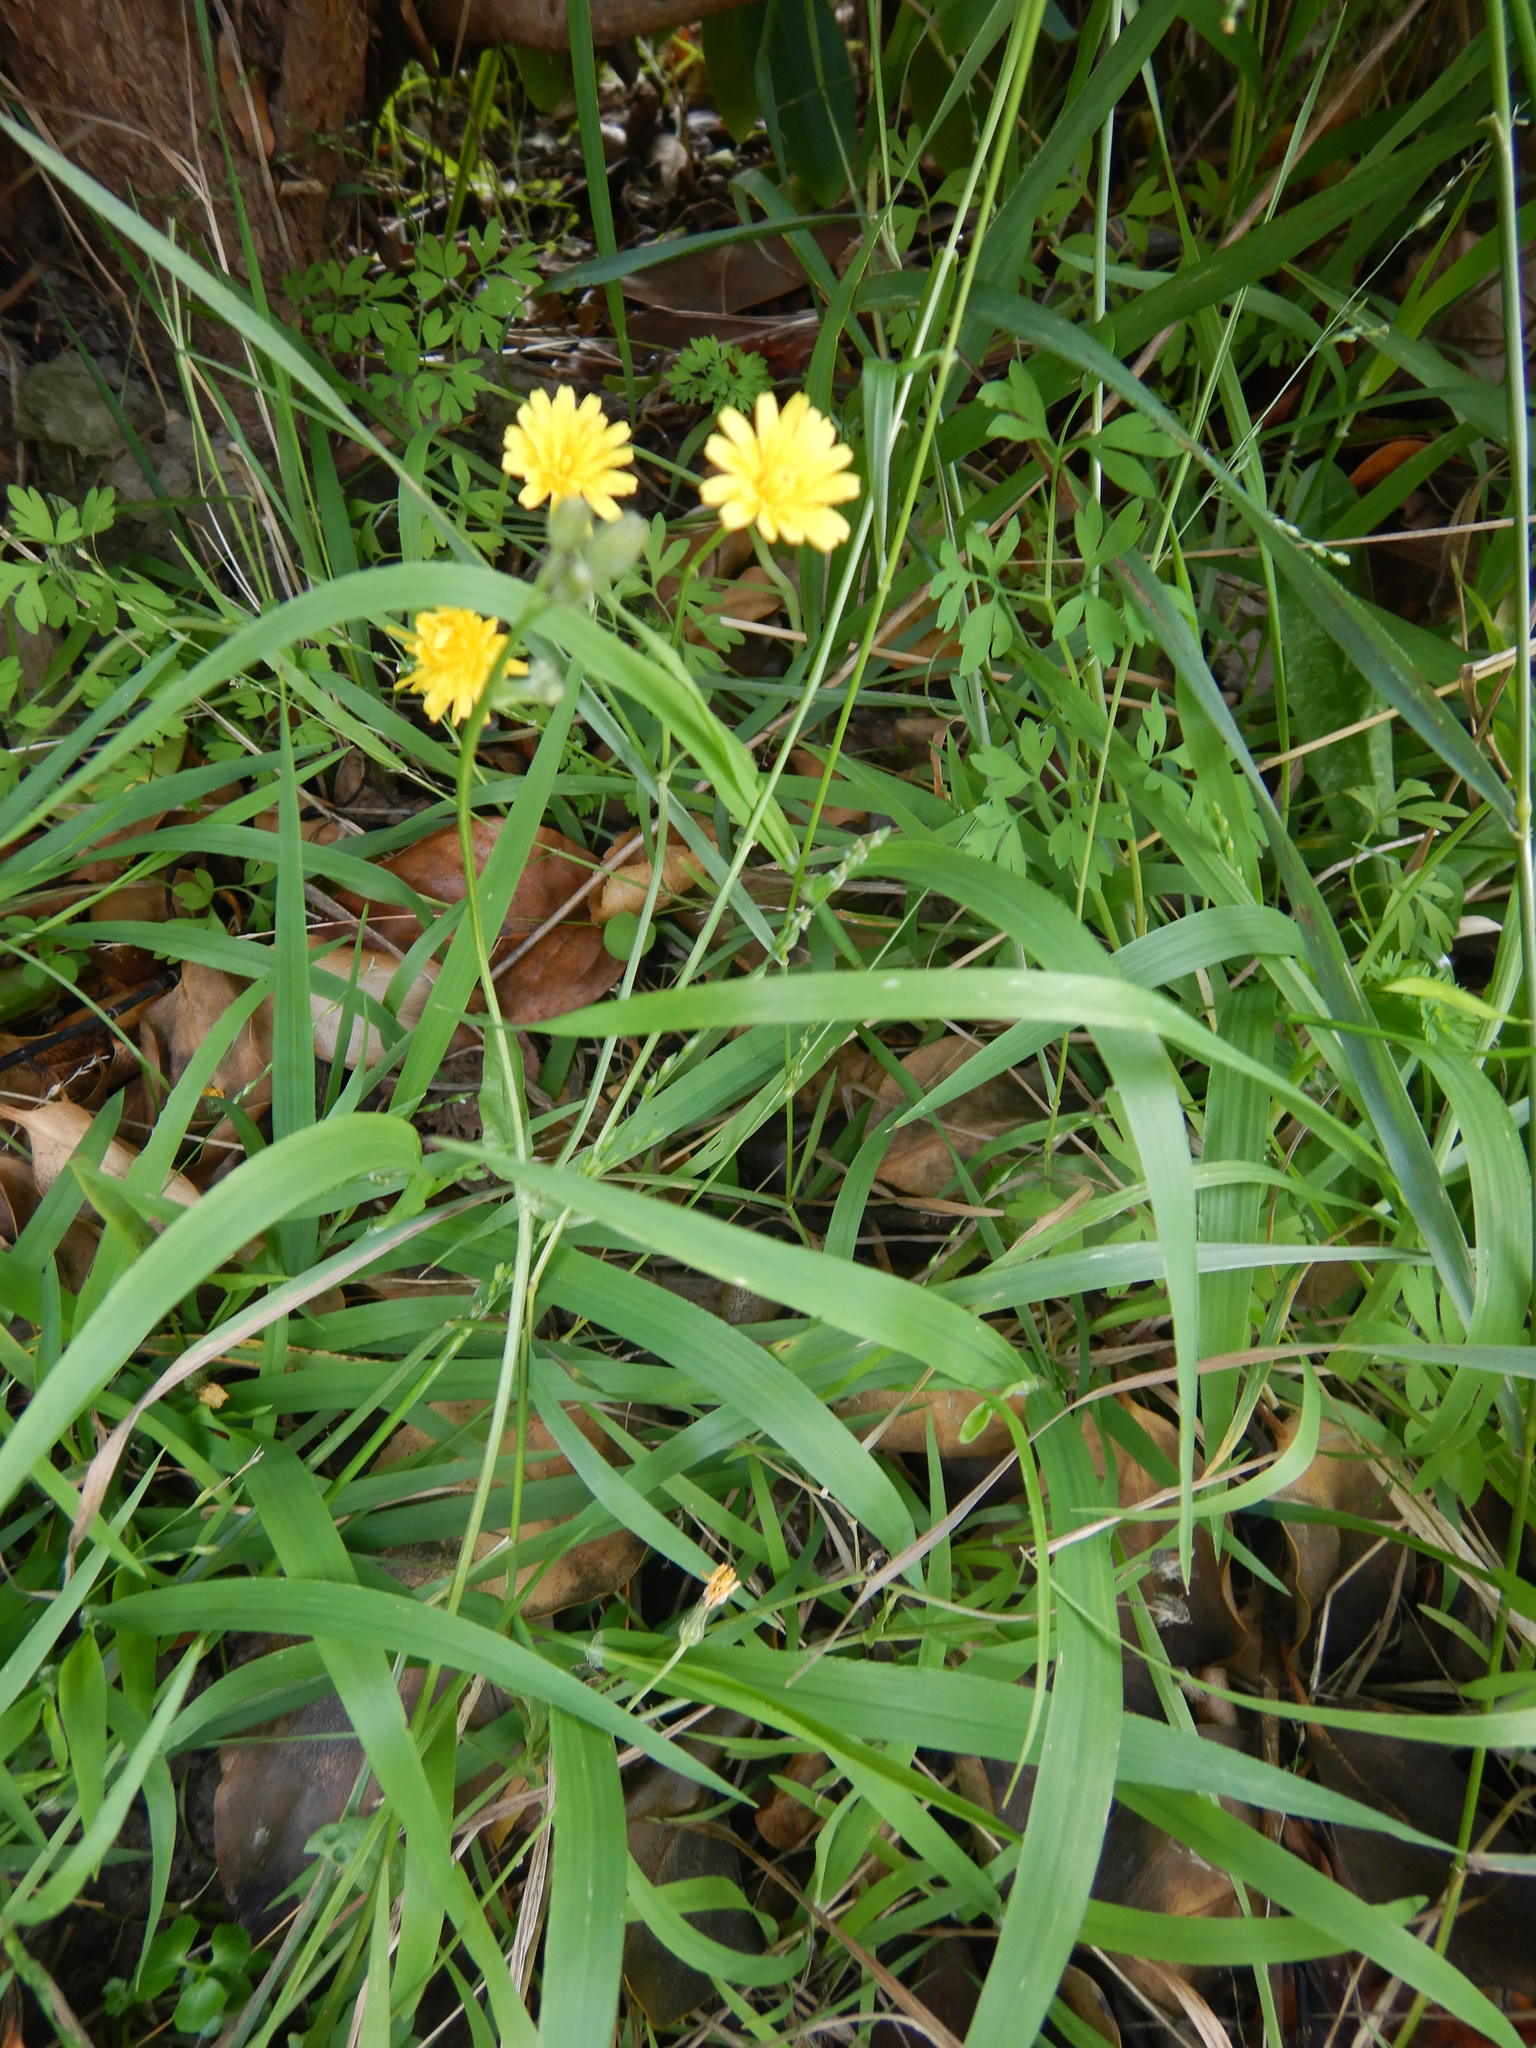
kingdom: Plantae
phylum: Tracheophyta
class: Magnoliopsida
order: Asterales
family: Asteraceae
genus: Crepis
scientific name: Crepis capillaris
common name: Smooth hawksbeard
